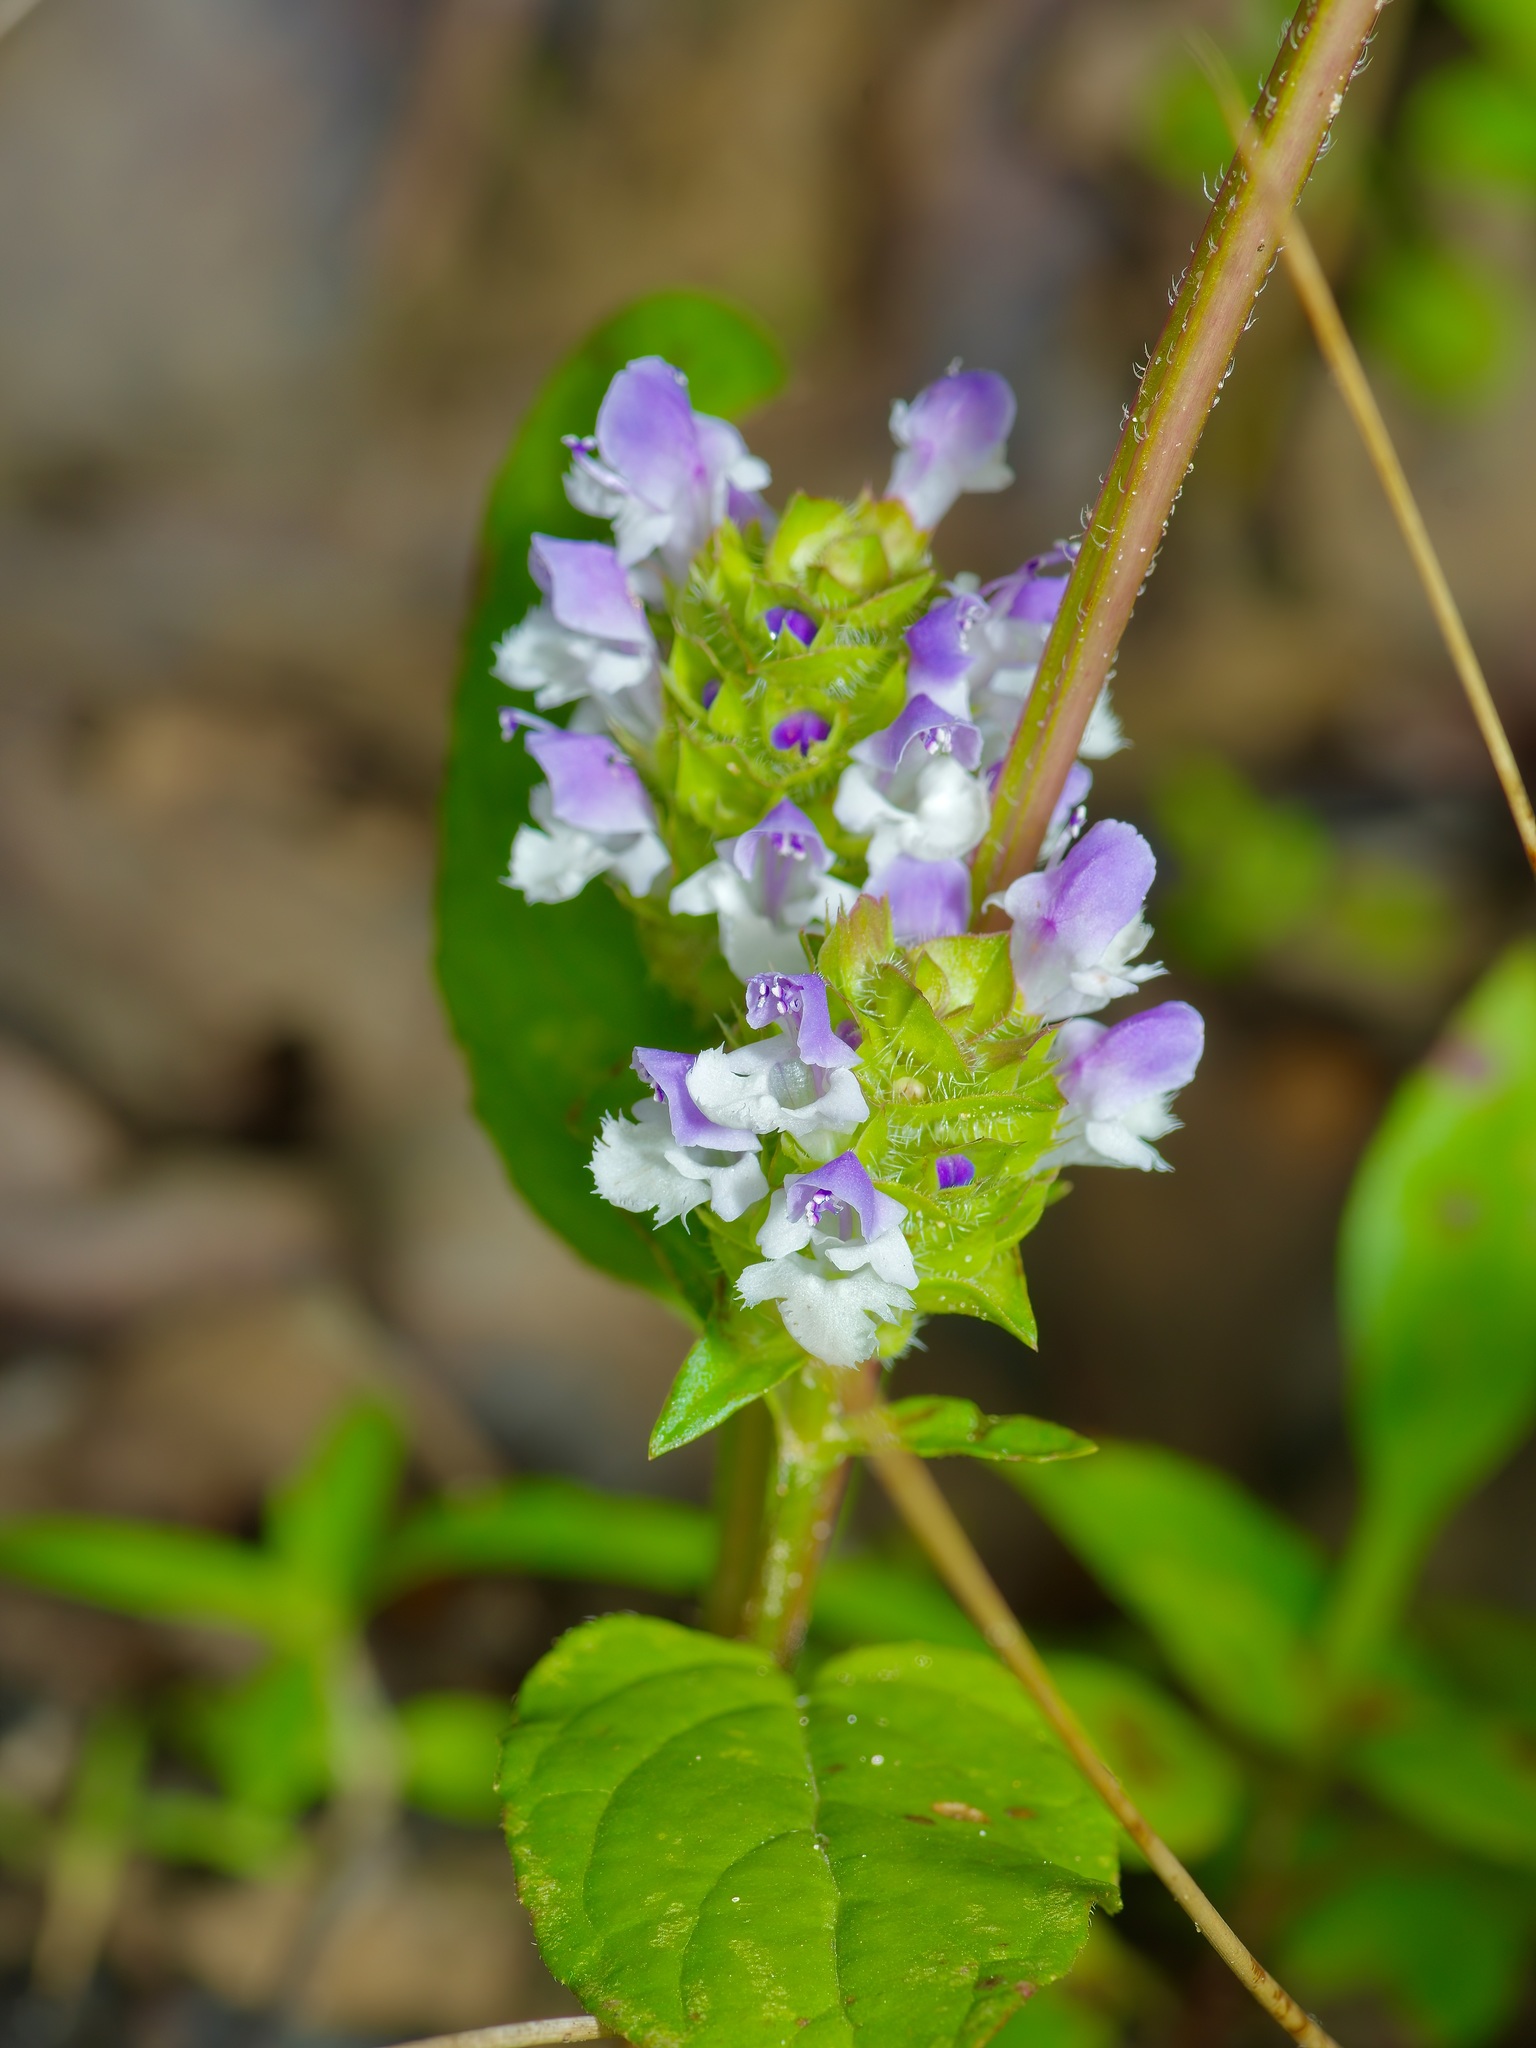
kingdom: Plantae
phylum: Tracheophyta
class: Magnoliopsida
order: Lamiales
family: Lamiaceae
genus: Prunella
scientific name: Prunella vulgaris
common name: Heal-all
